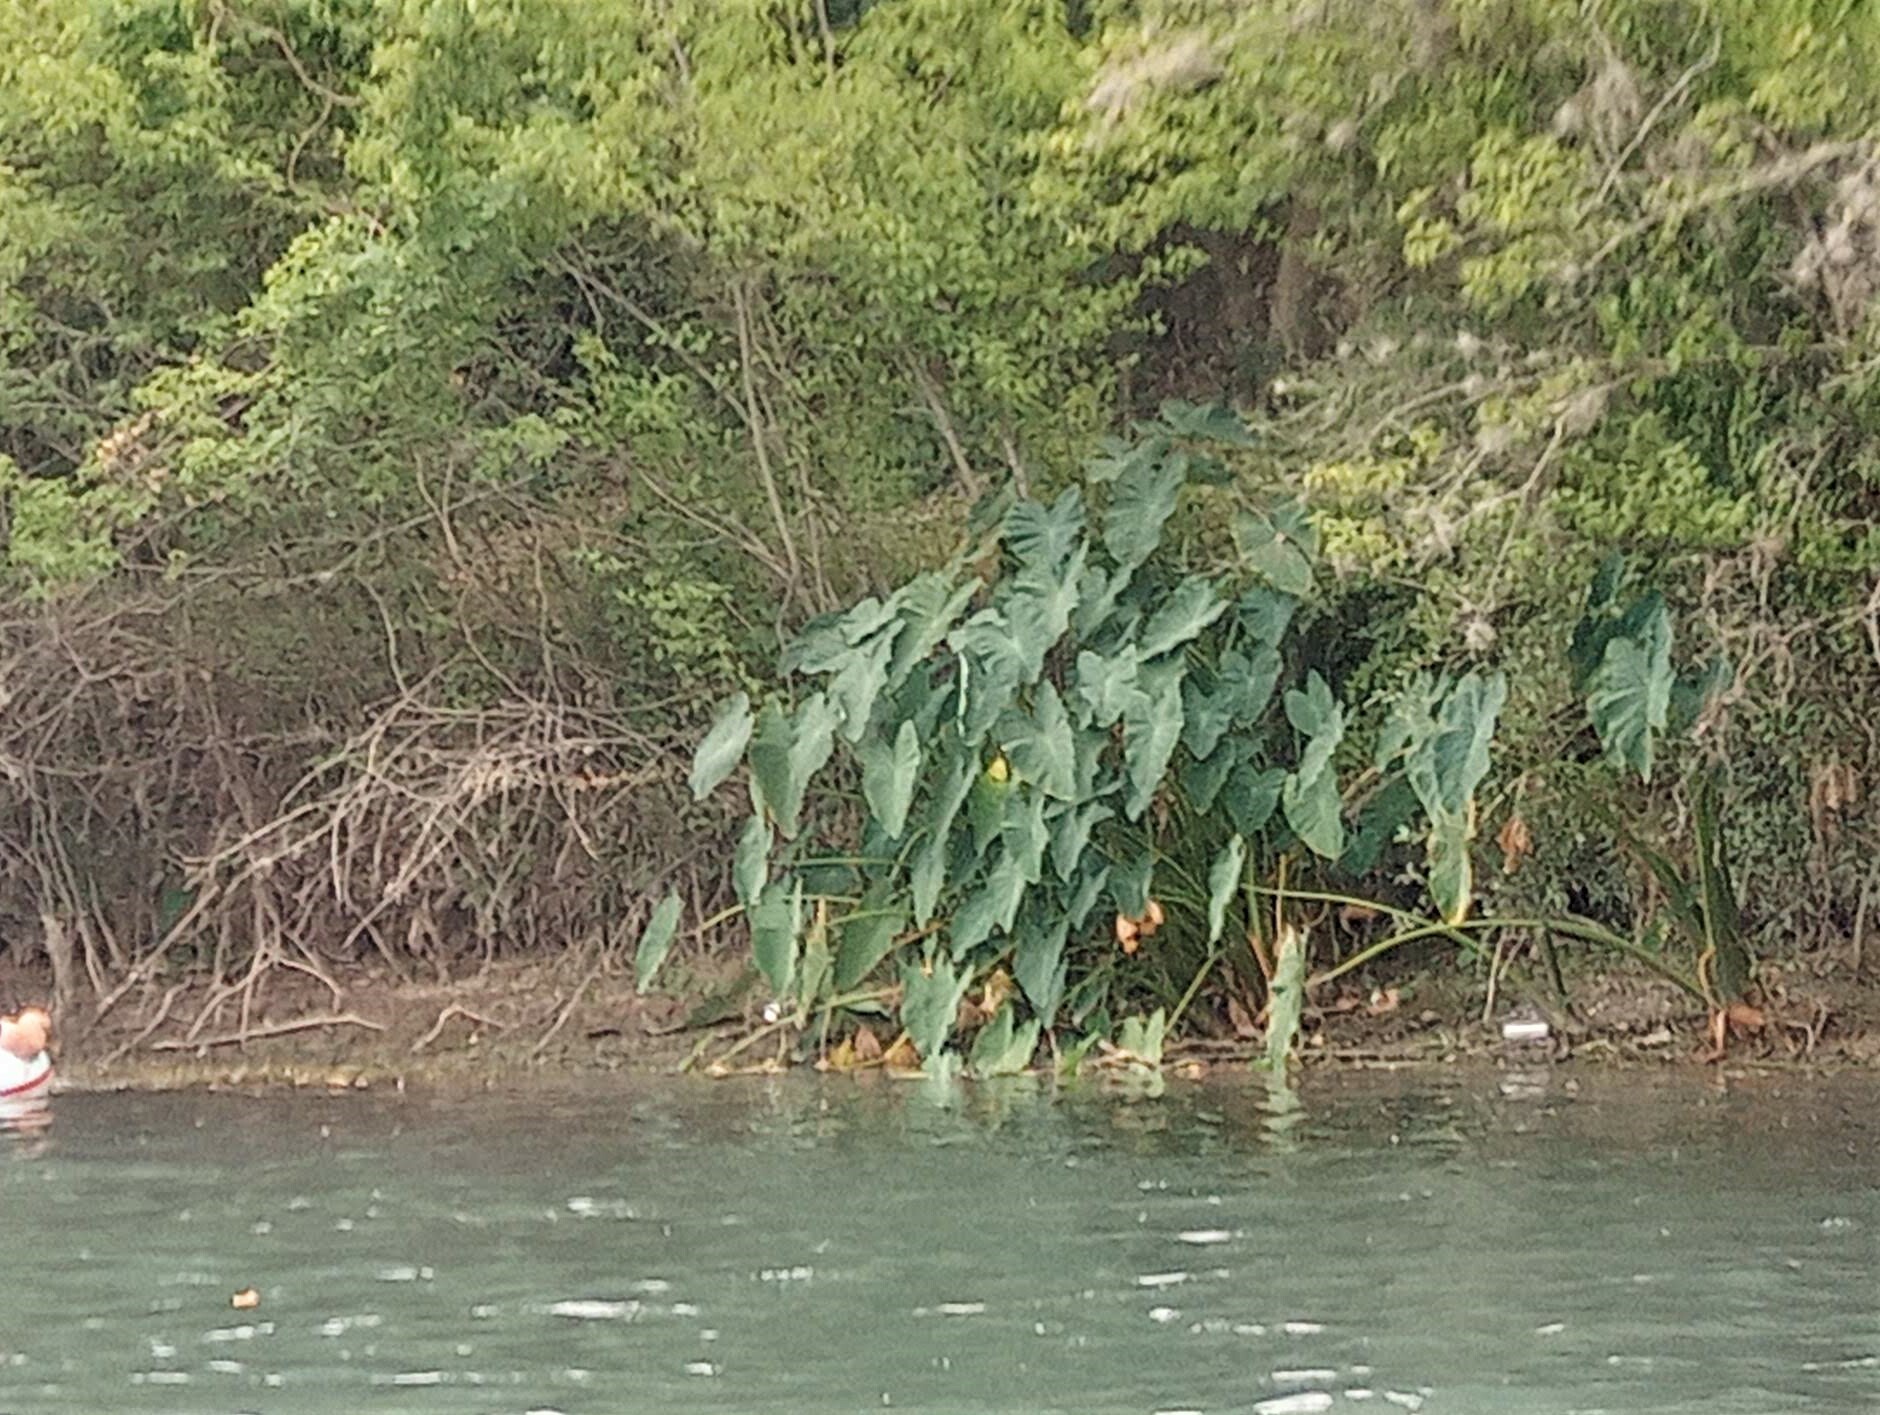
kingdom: Plantae
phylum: Tracheophyta
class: Liliopsida
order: Alismatales
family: Araceae
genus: Colocasia
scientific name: Colocasia esculenta
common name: Taro
